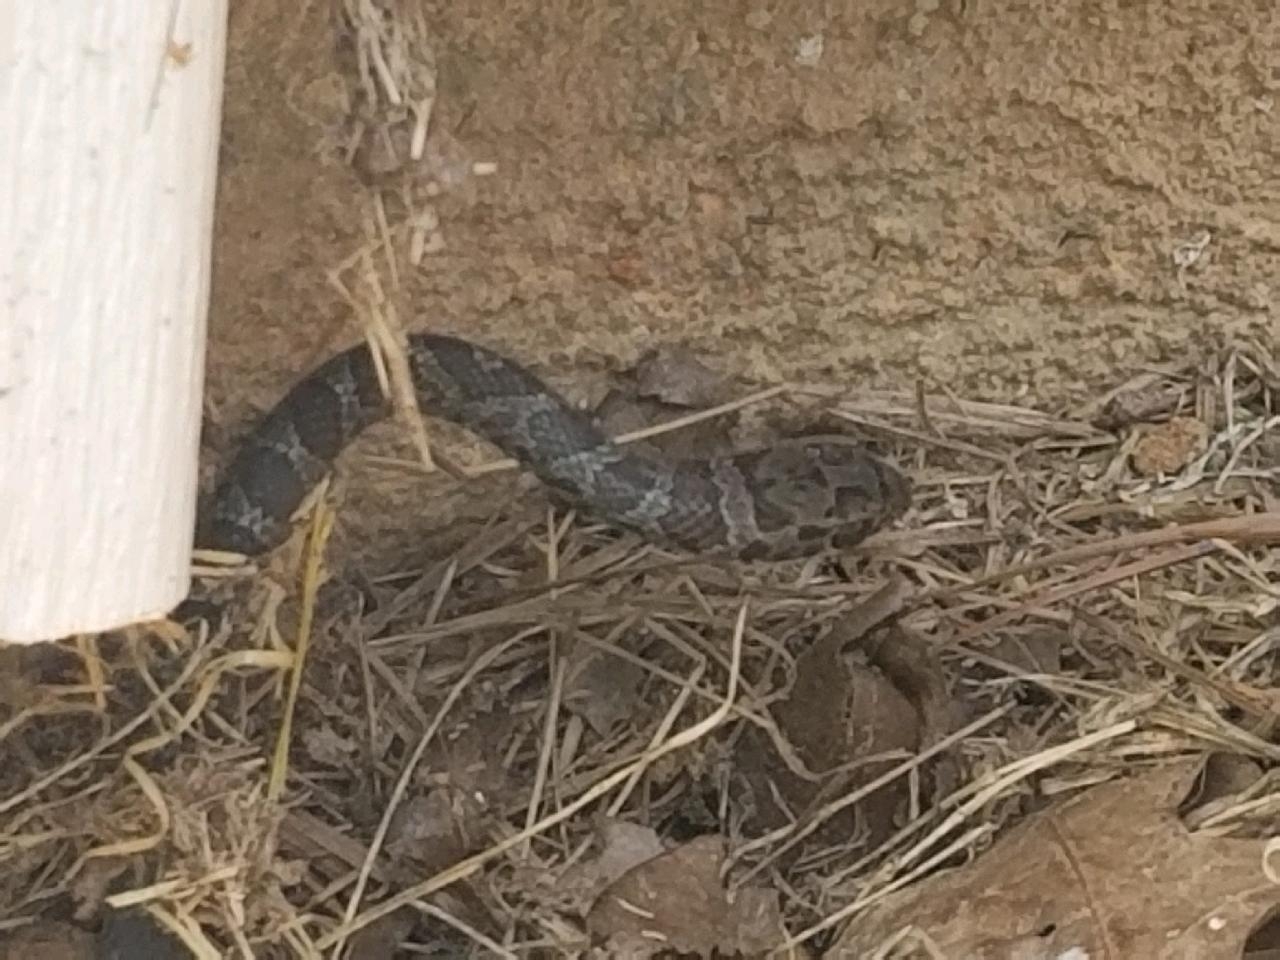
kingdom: Animalia
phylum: Chordata
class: Squamata
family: Colubridae
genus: Coluber
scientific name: Coluber constrictor
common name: Eastern racer
